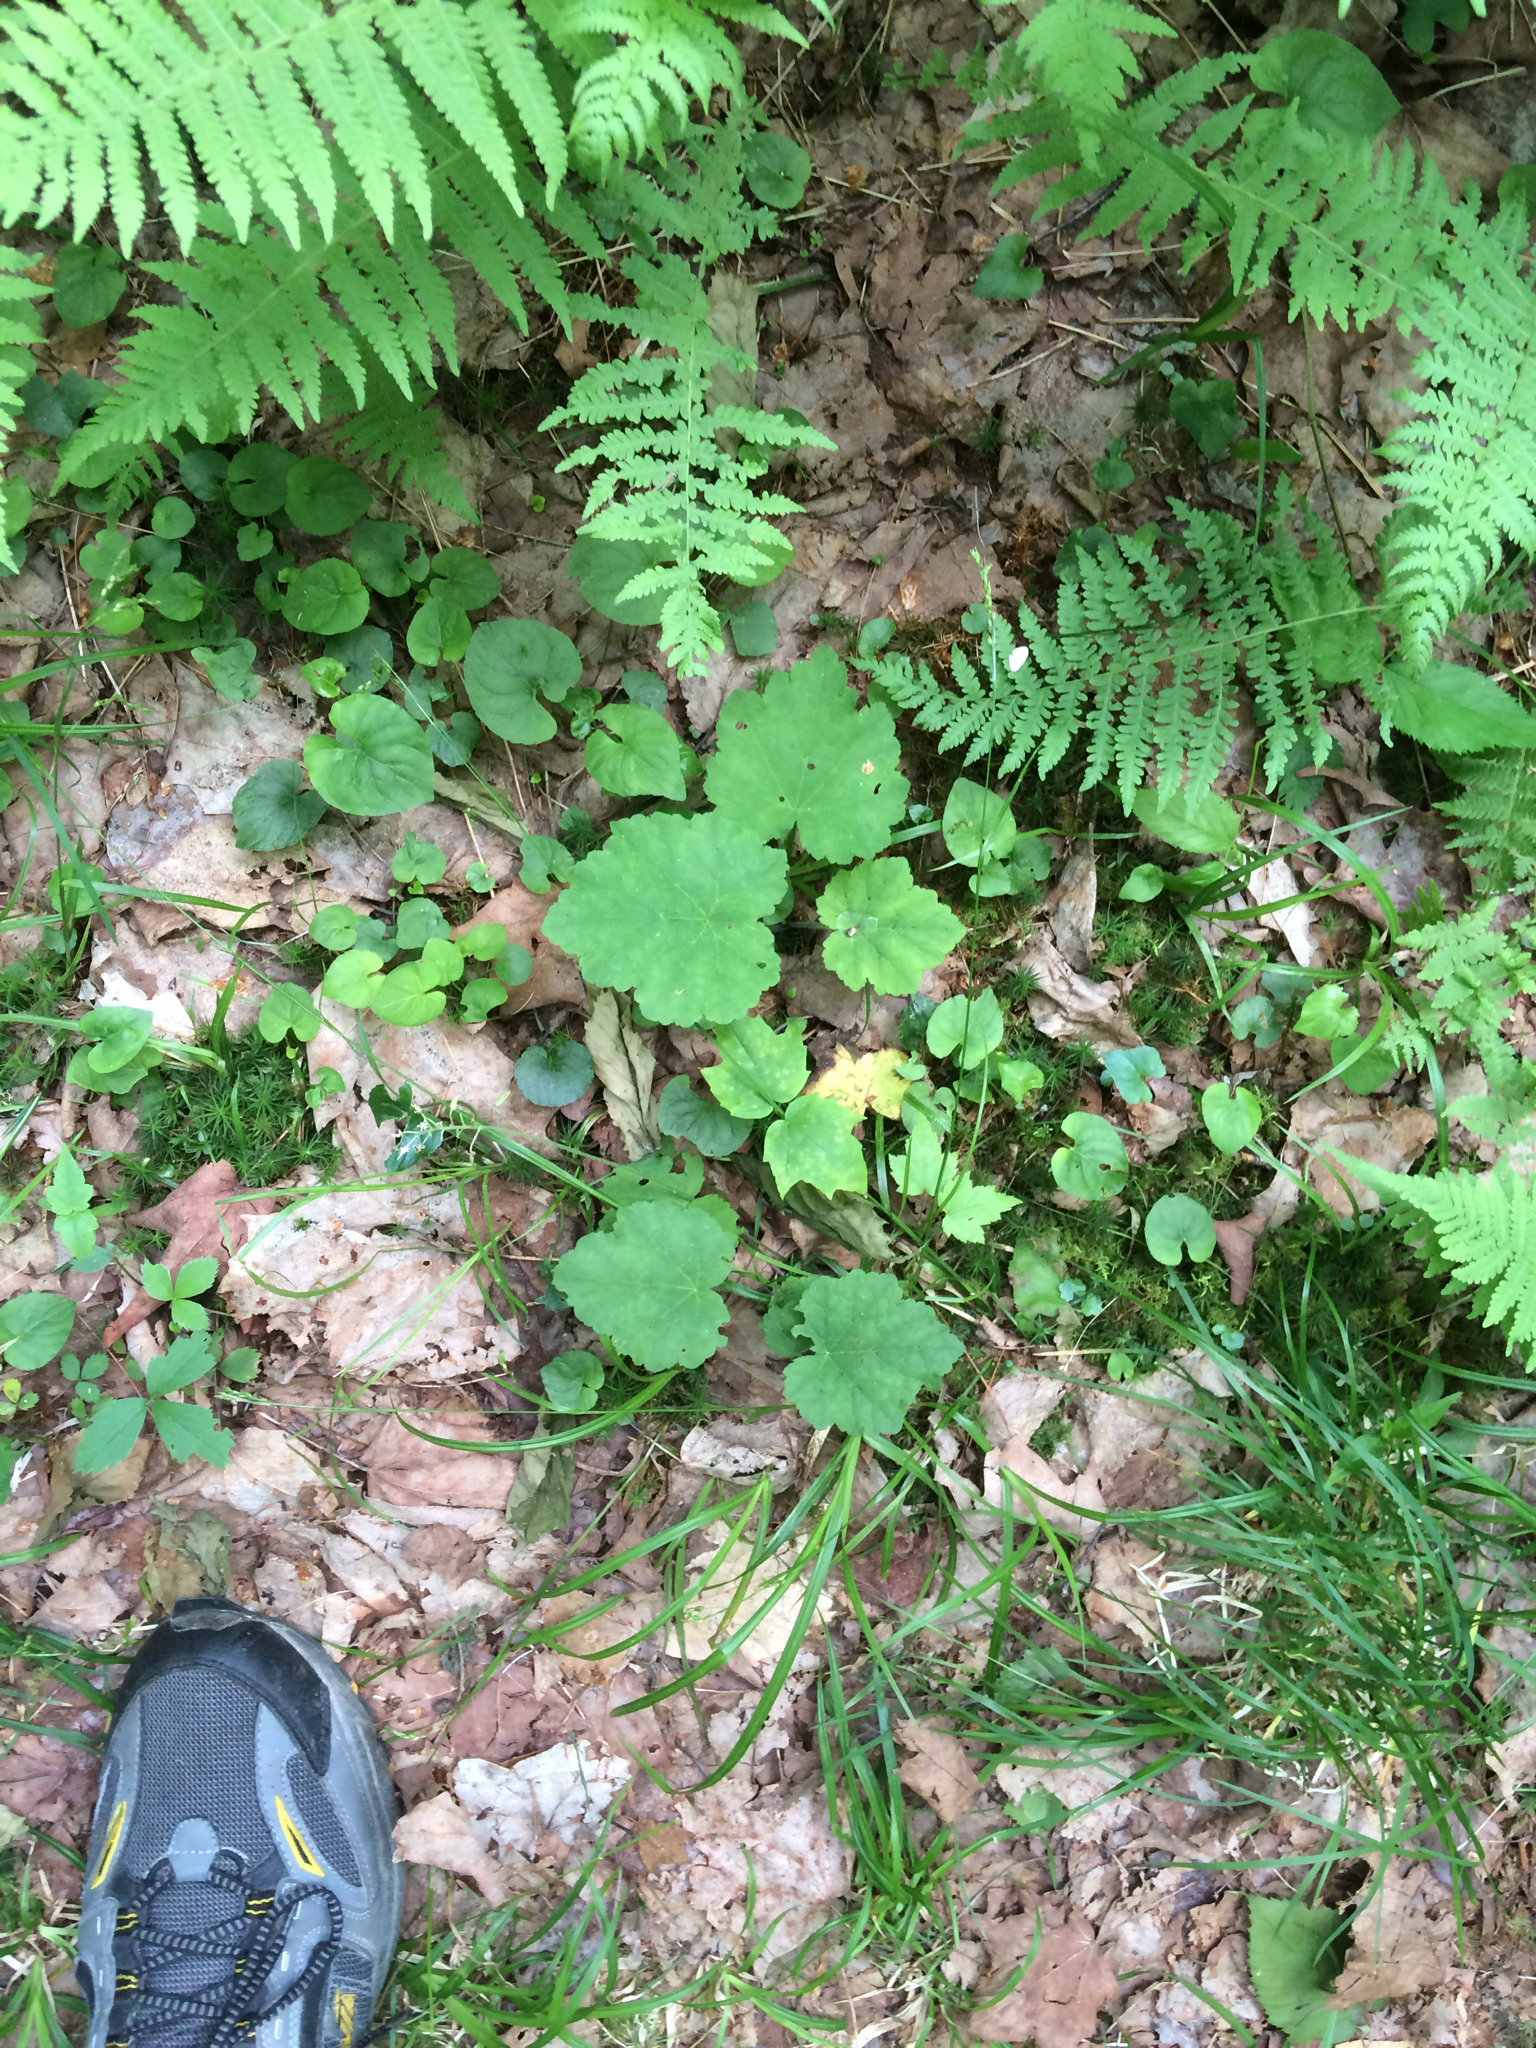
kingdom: Plantae
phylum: Tracheophyta
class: Magnoliopsida
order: Saxifragales
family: Saxifragaceae
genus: Tiarella
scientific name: Tiarella stolonifera
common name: Stoloniferous foamflower
